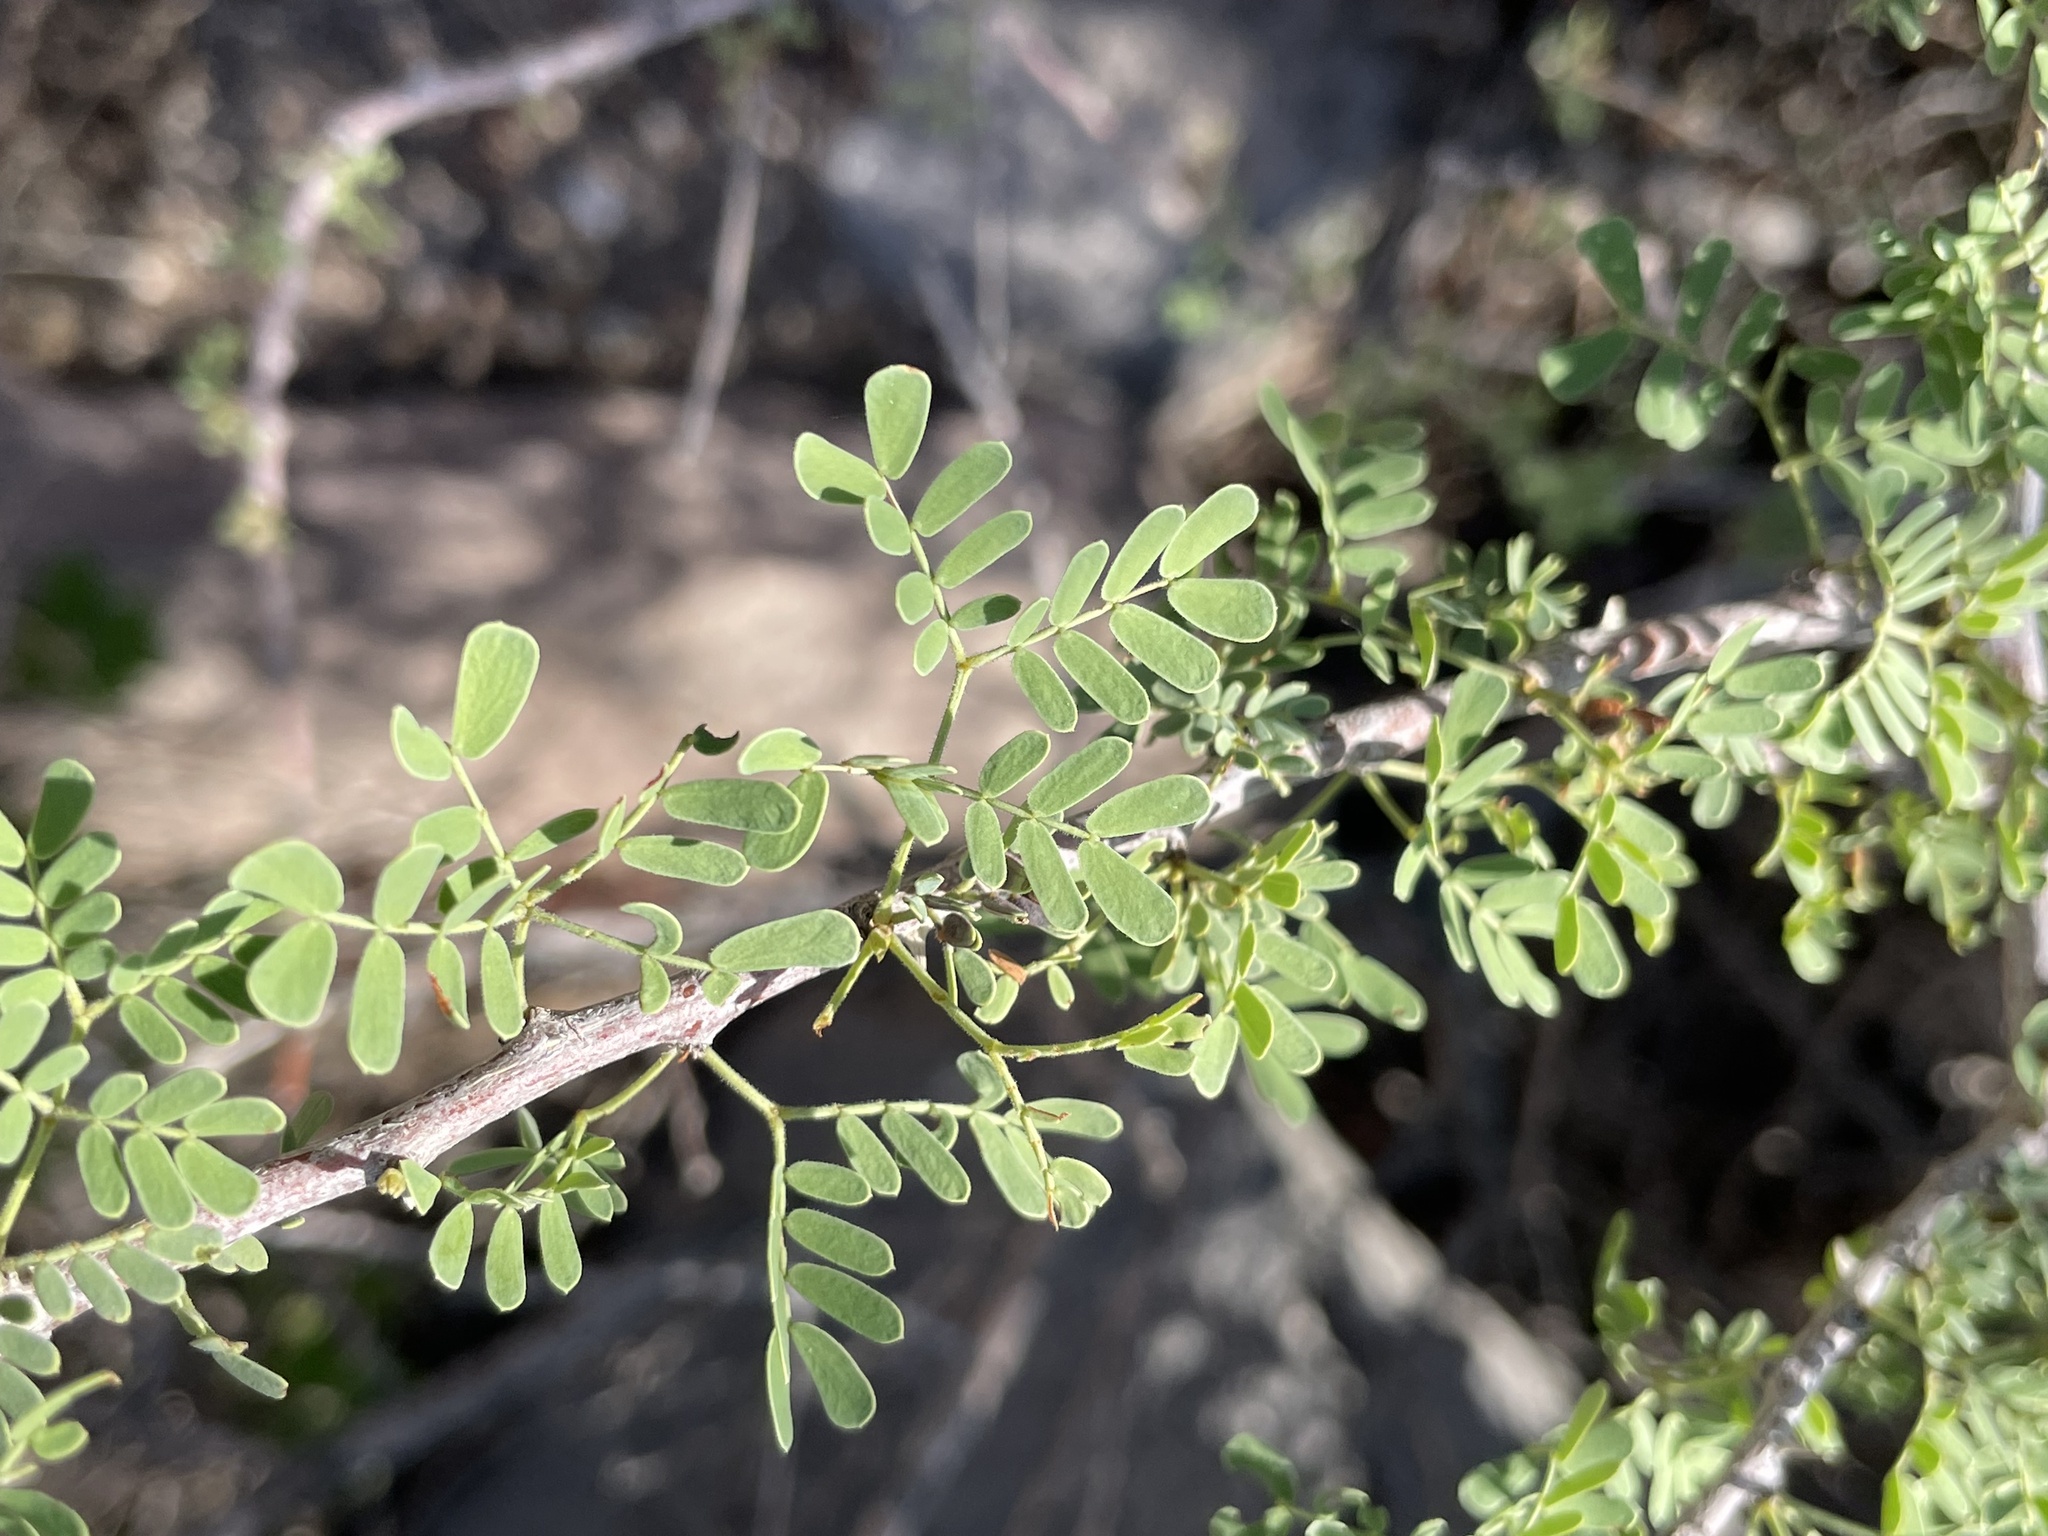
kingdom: Plantae
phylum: Tracheophyta
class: Magnoliopsida
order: Fabales
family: Fabaceae
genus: Senegalia
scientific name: Senegalia greggii
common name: Texas-mimosa
